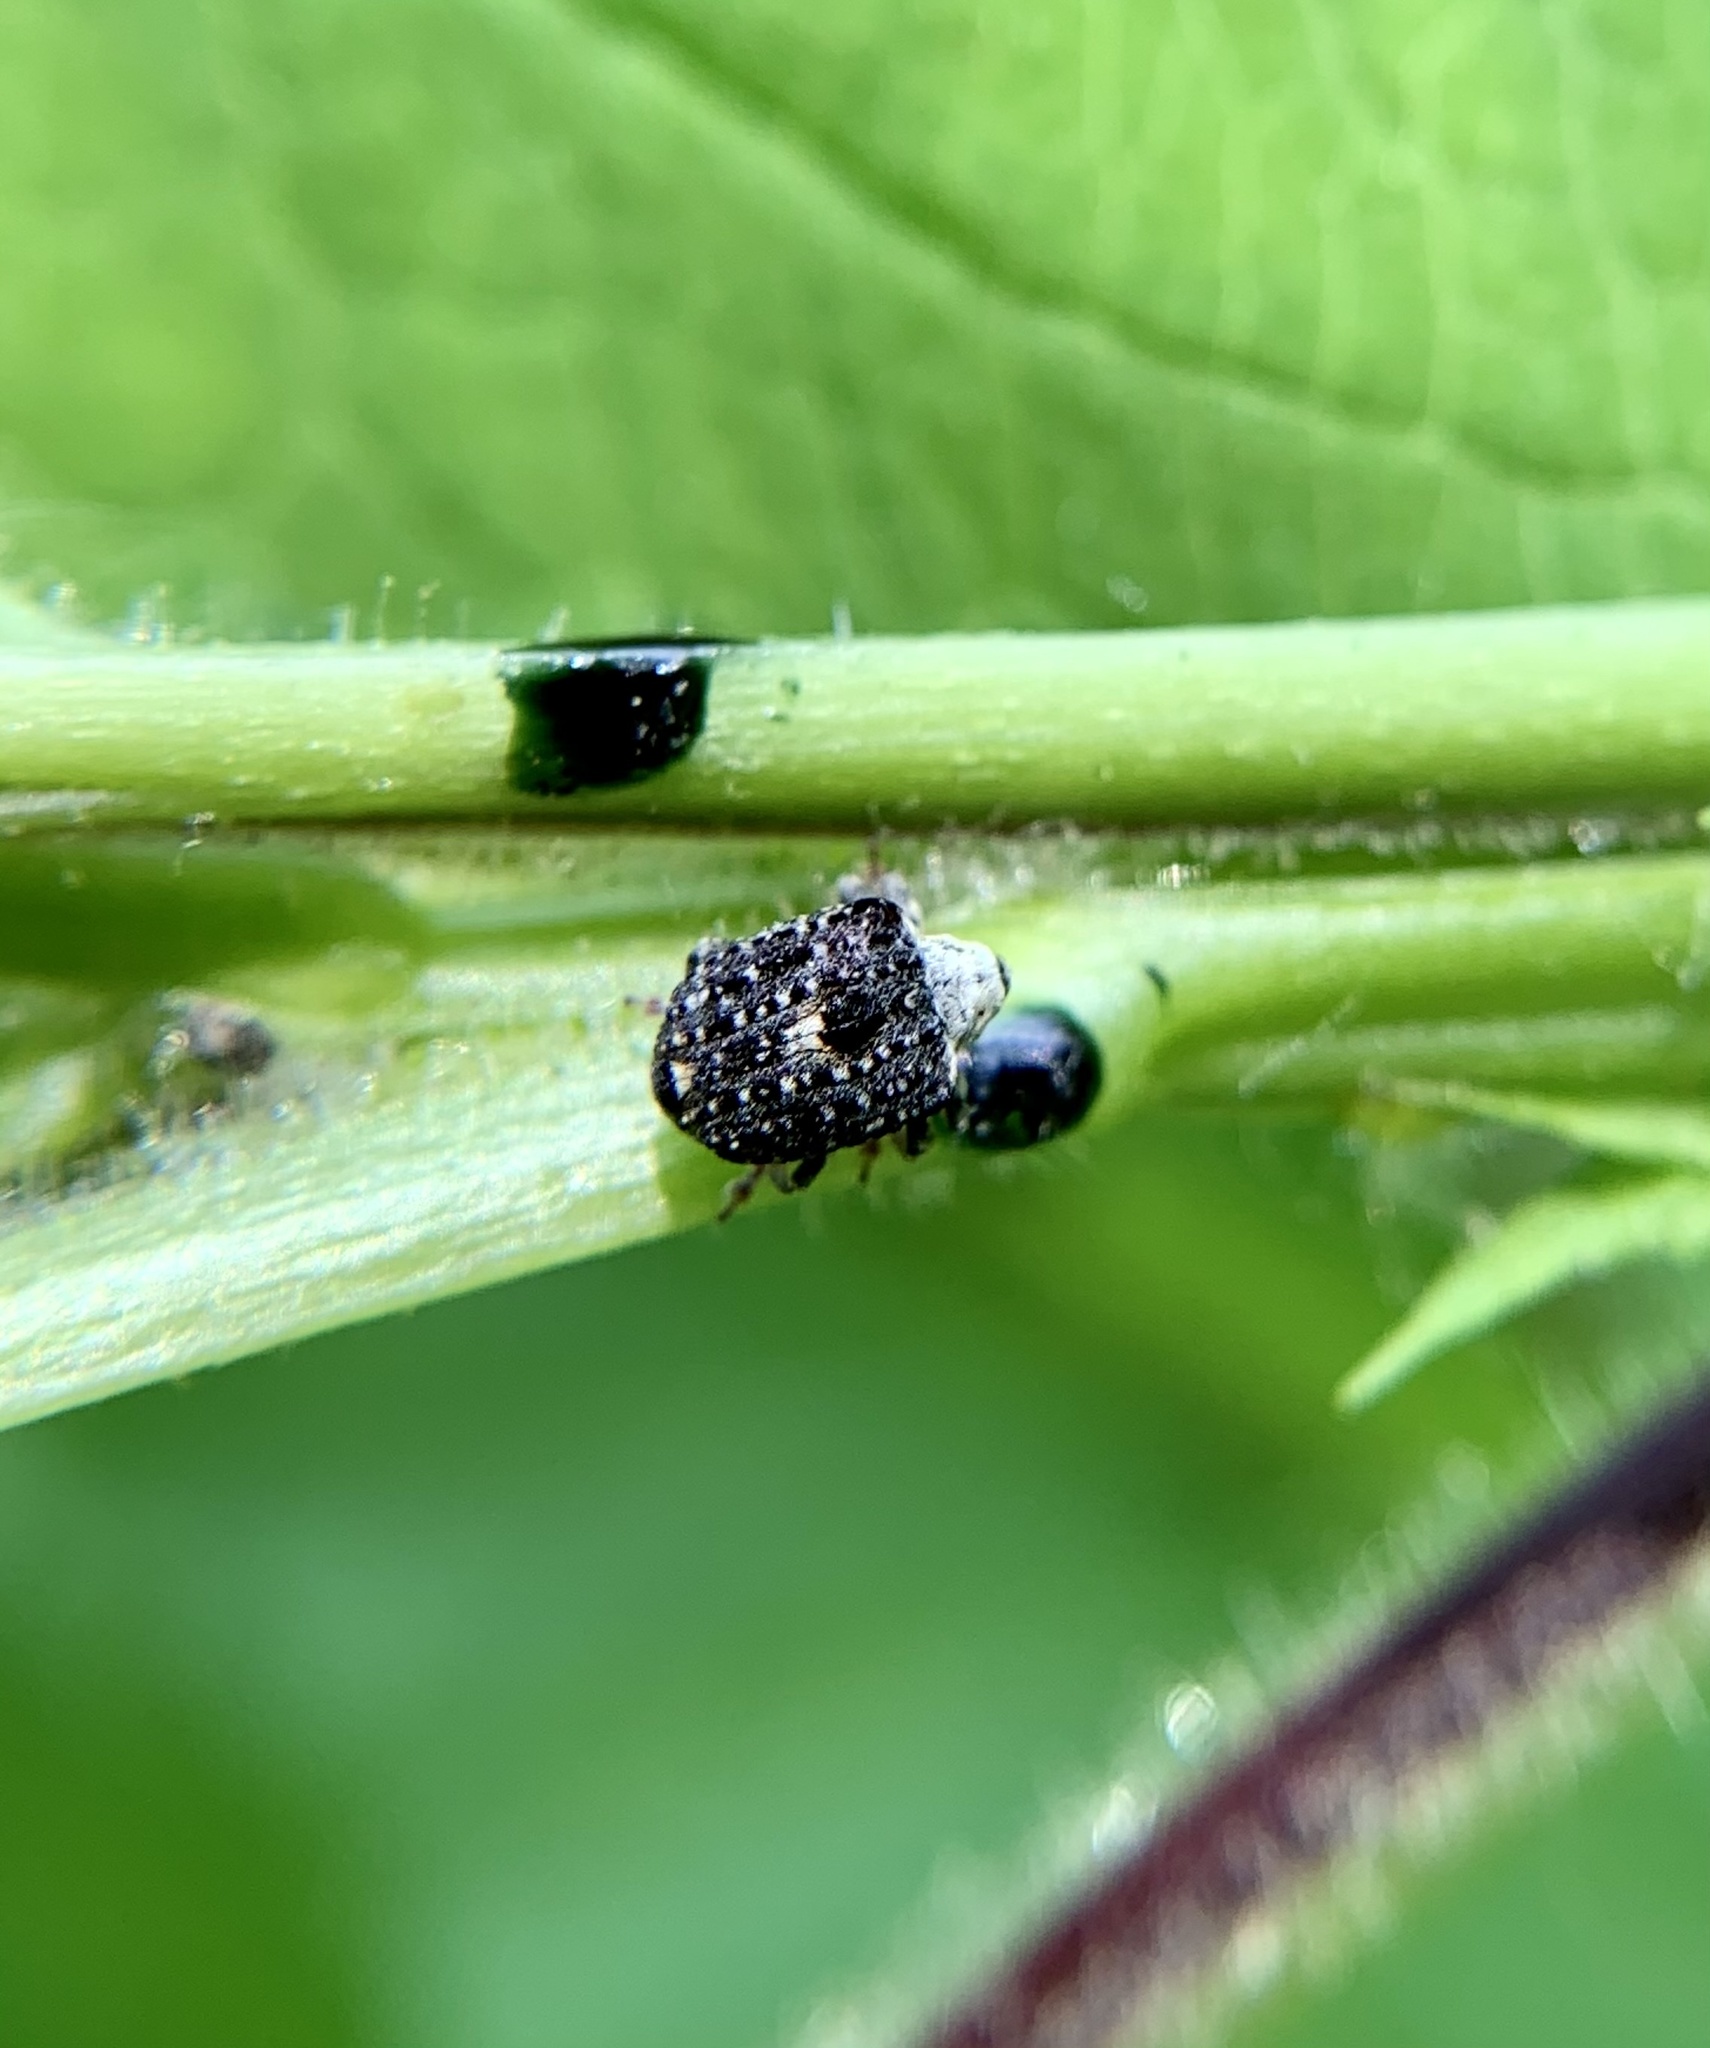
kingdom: Animalia
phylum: Arthropoda
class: Insecta
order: Coleoptera
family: Curculionidae
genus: Cionus
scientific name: Cionus scrophulariae
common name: Common figwort weevil
